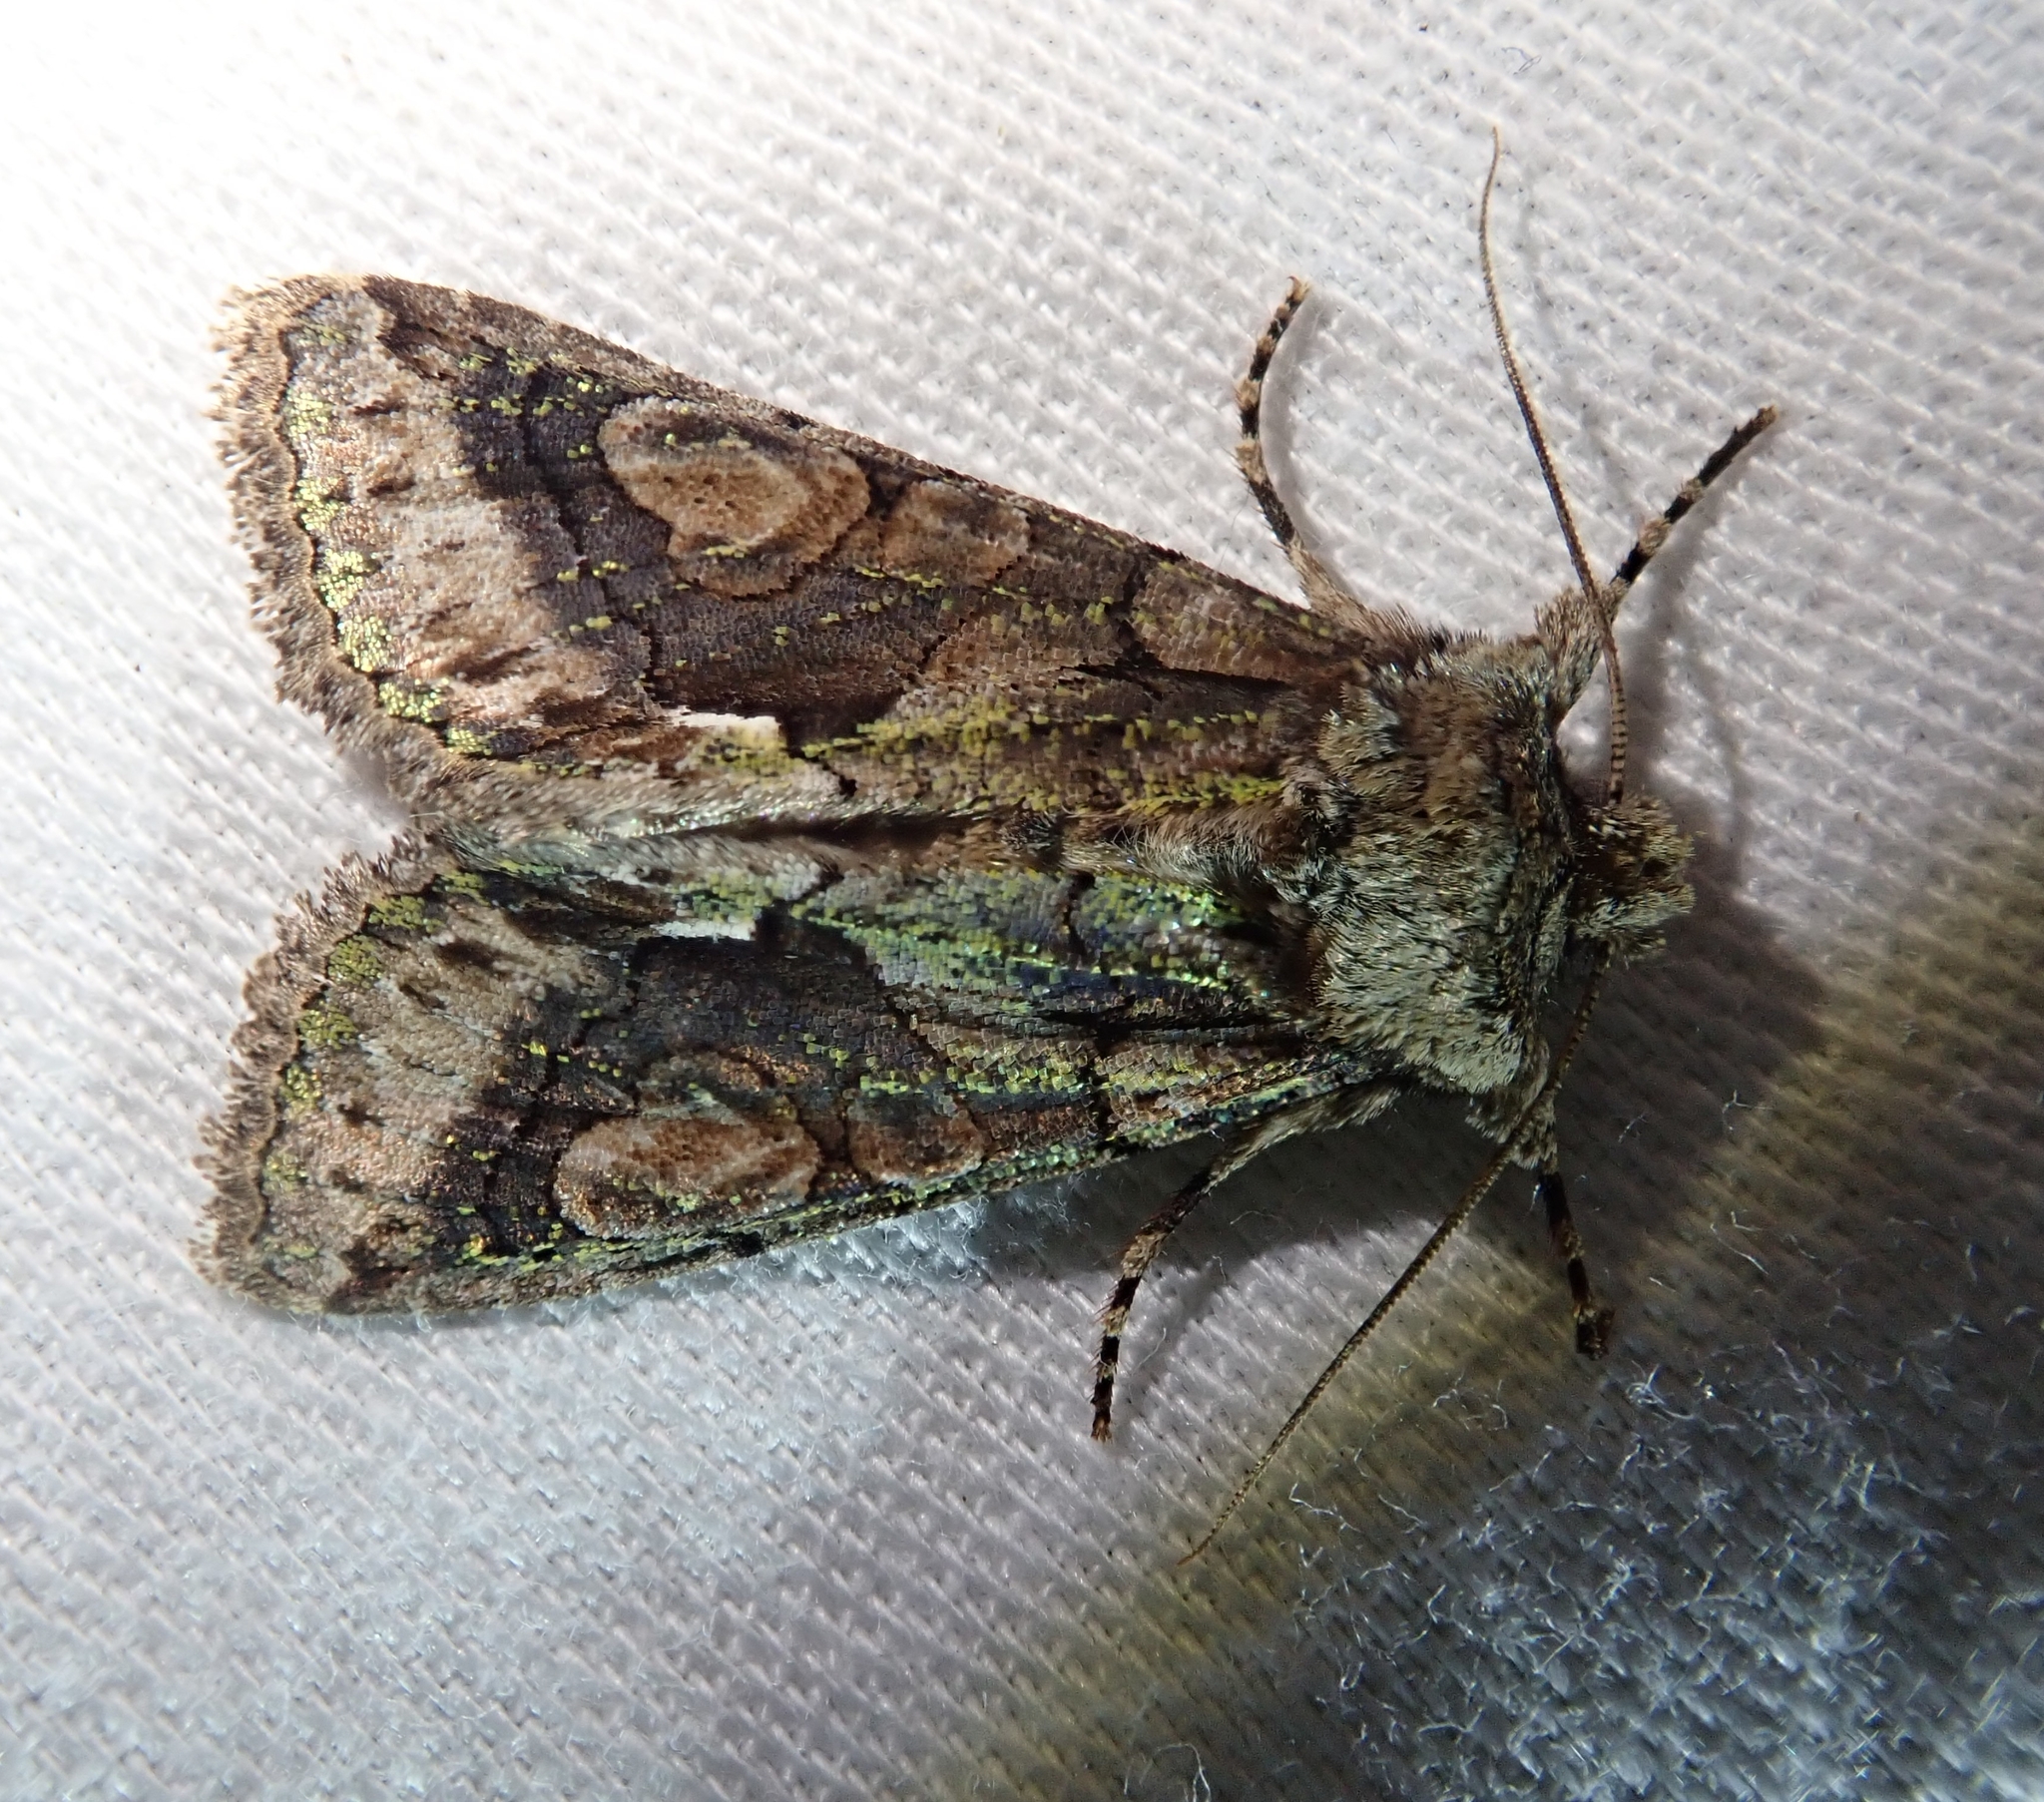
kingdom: Animalia
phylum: Arthropoda
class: Insecta
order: Lepidoptera
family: Noctuidae
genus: Allophyes
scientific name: Allophyes oxyacanthae
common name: Green-brindled crescent
